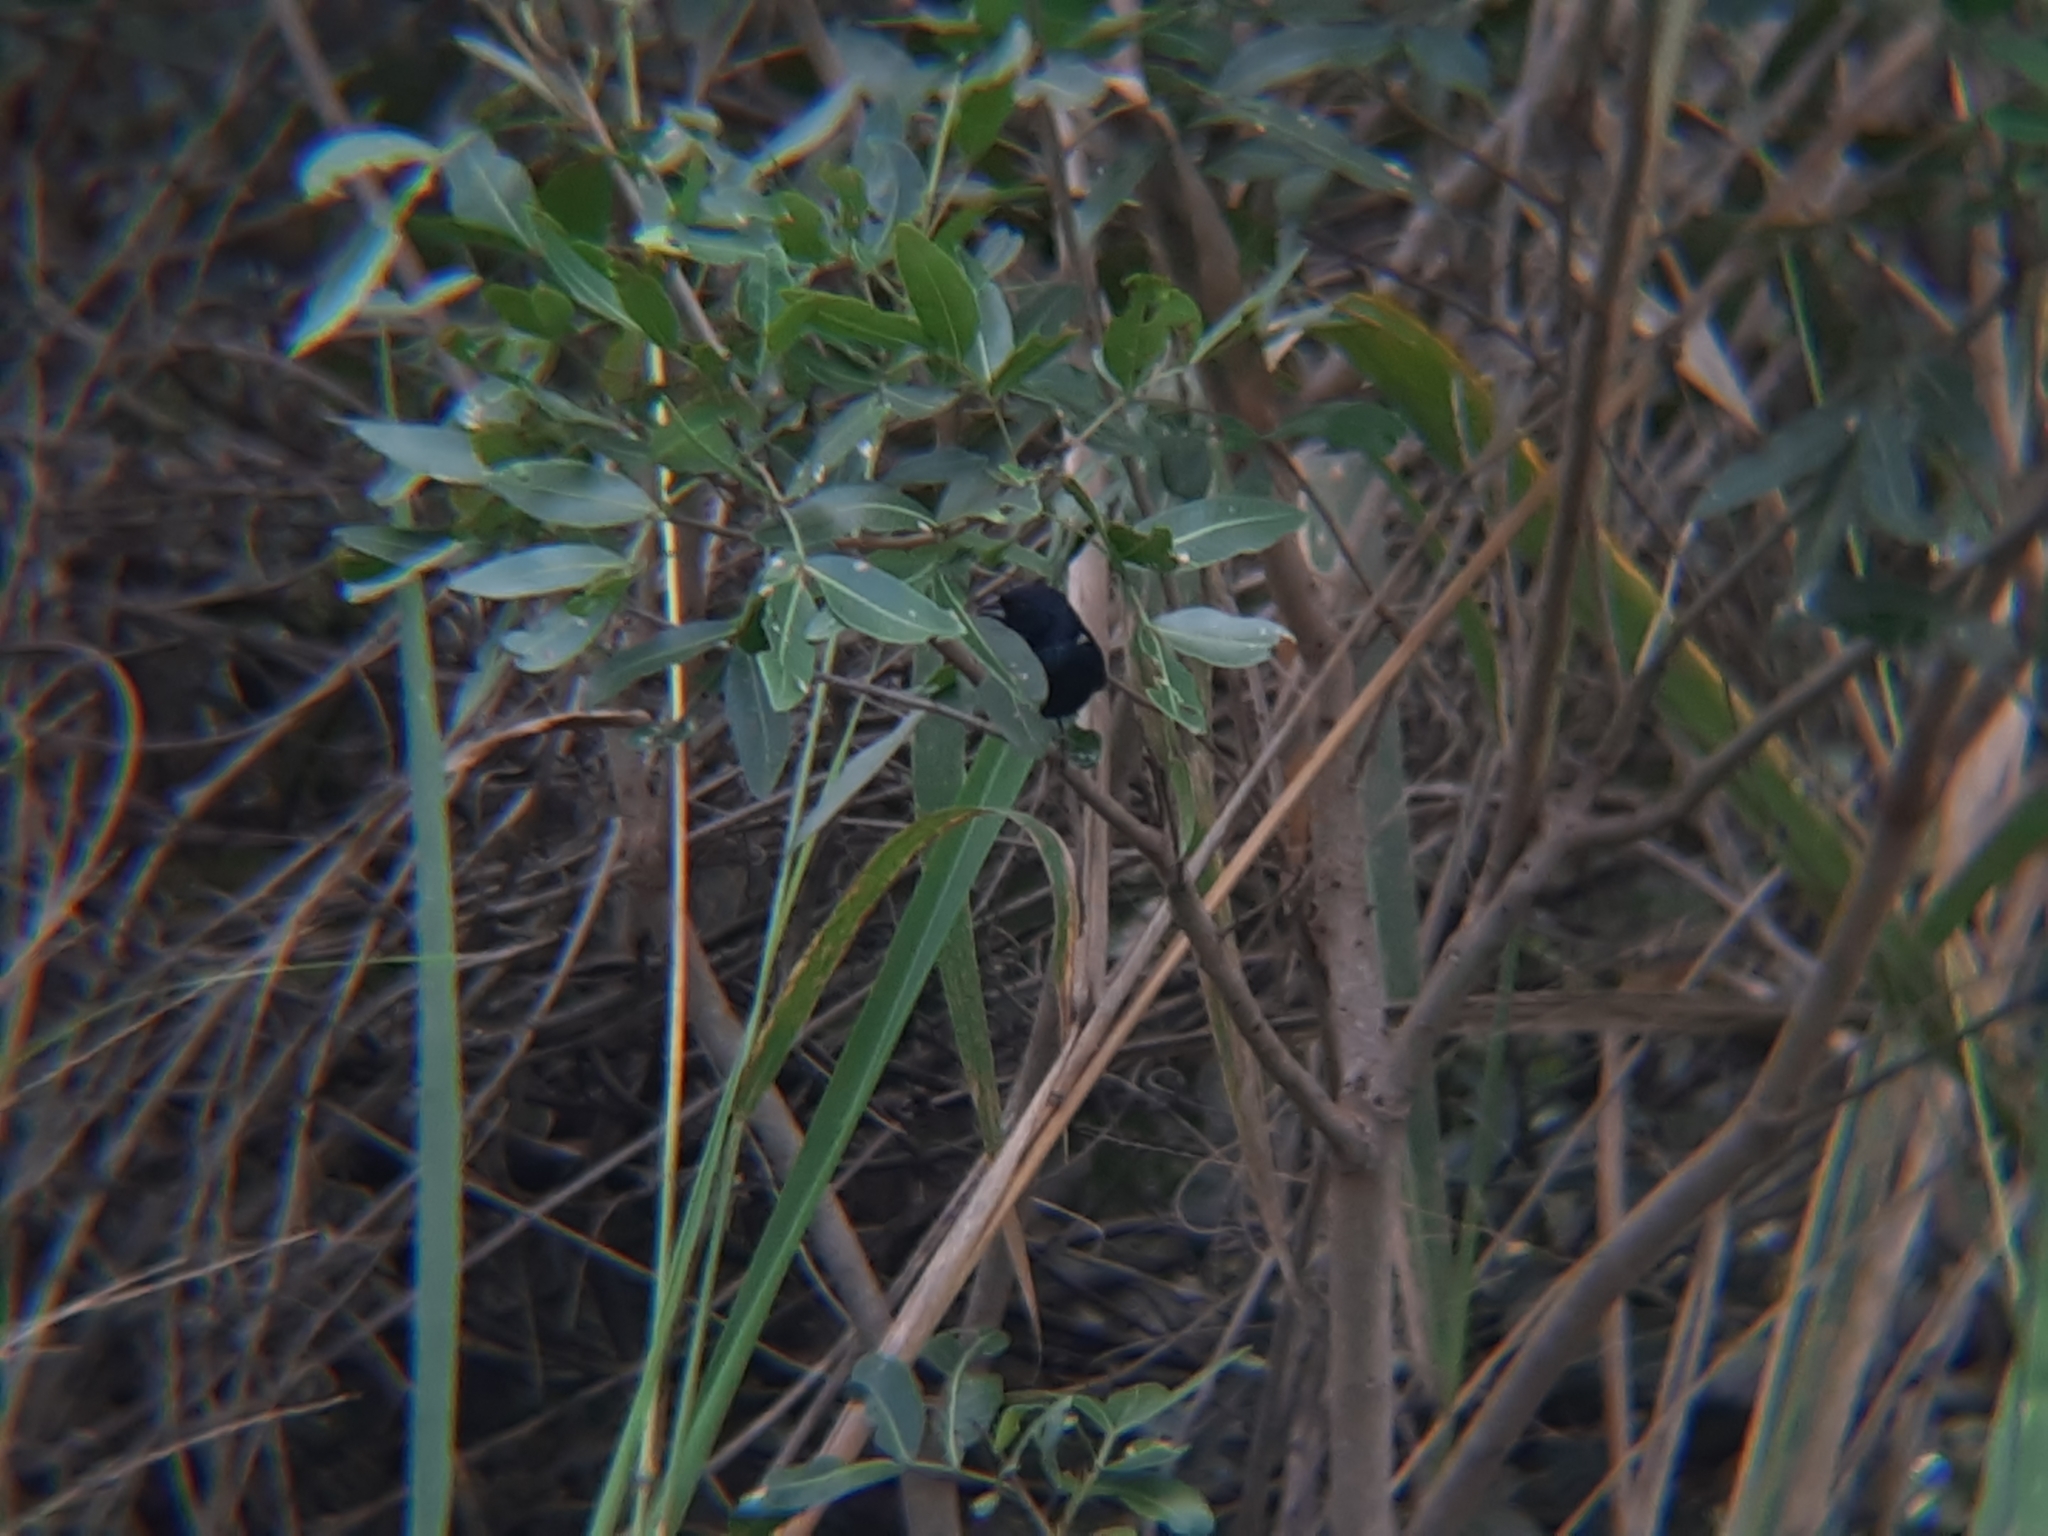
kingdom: Animalia
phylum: Chordata
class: Aves
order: Passeriformes
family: Thraupidae
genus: Volatinia
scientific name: Volatinia jacarina
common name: Blue-black grassquit
